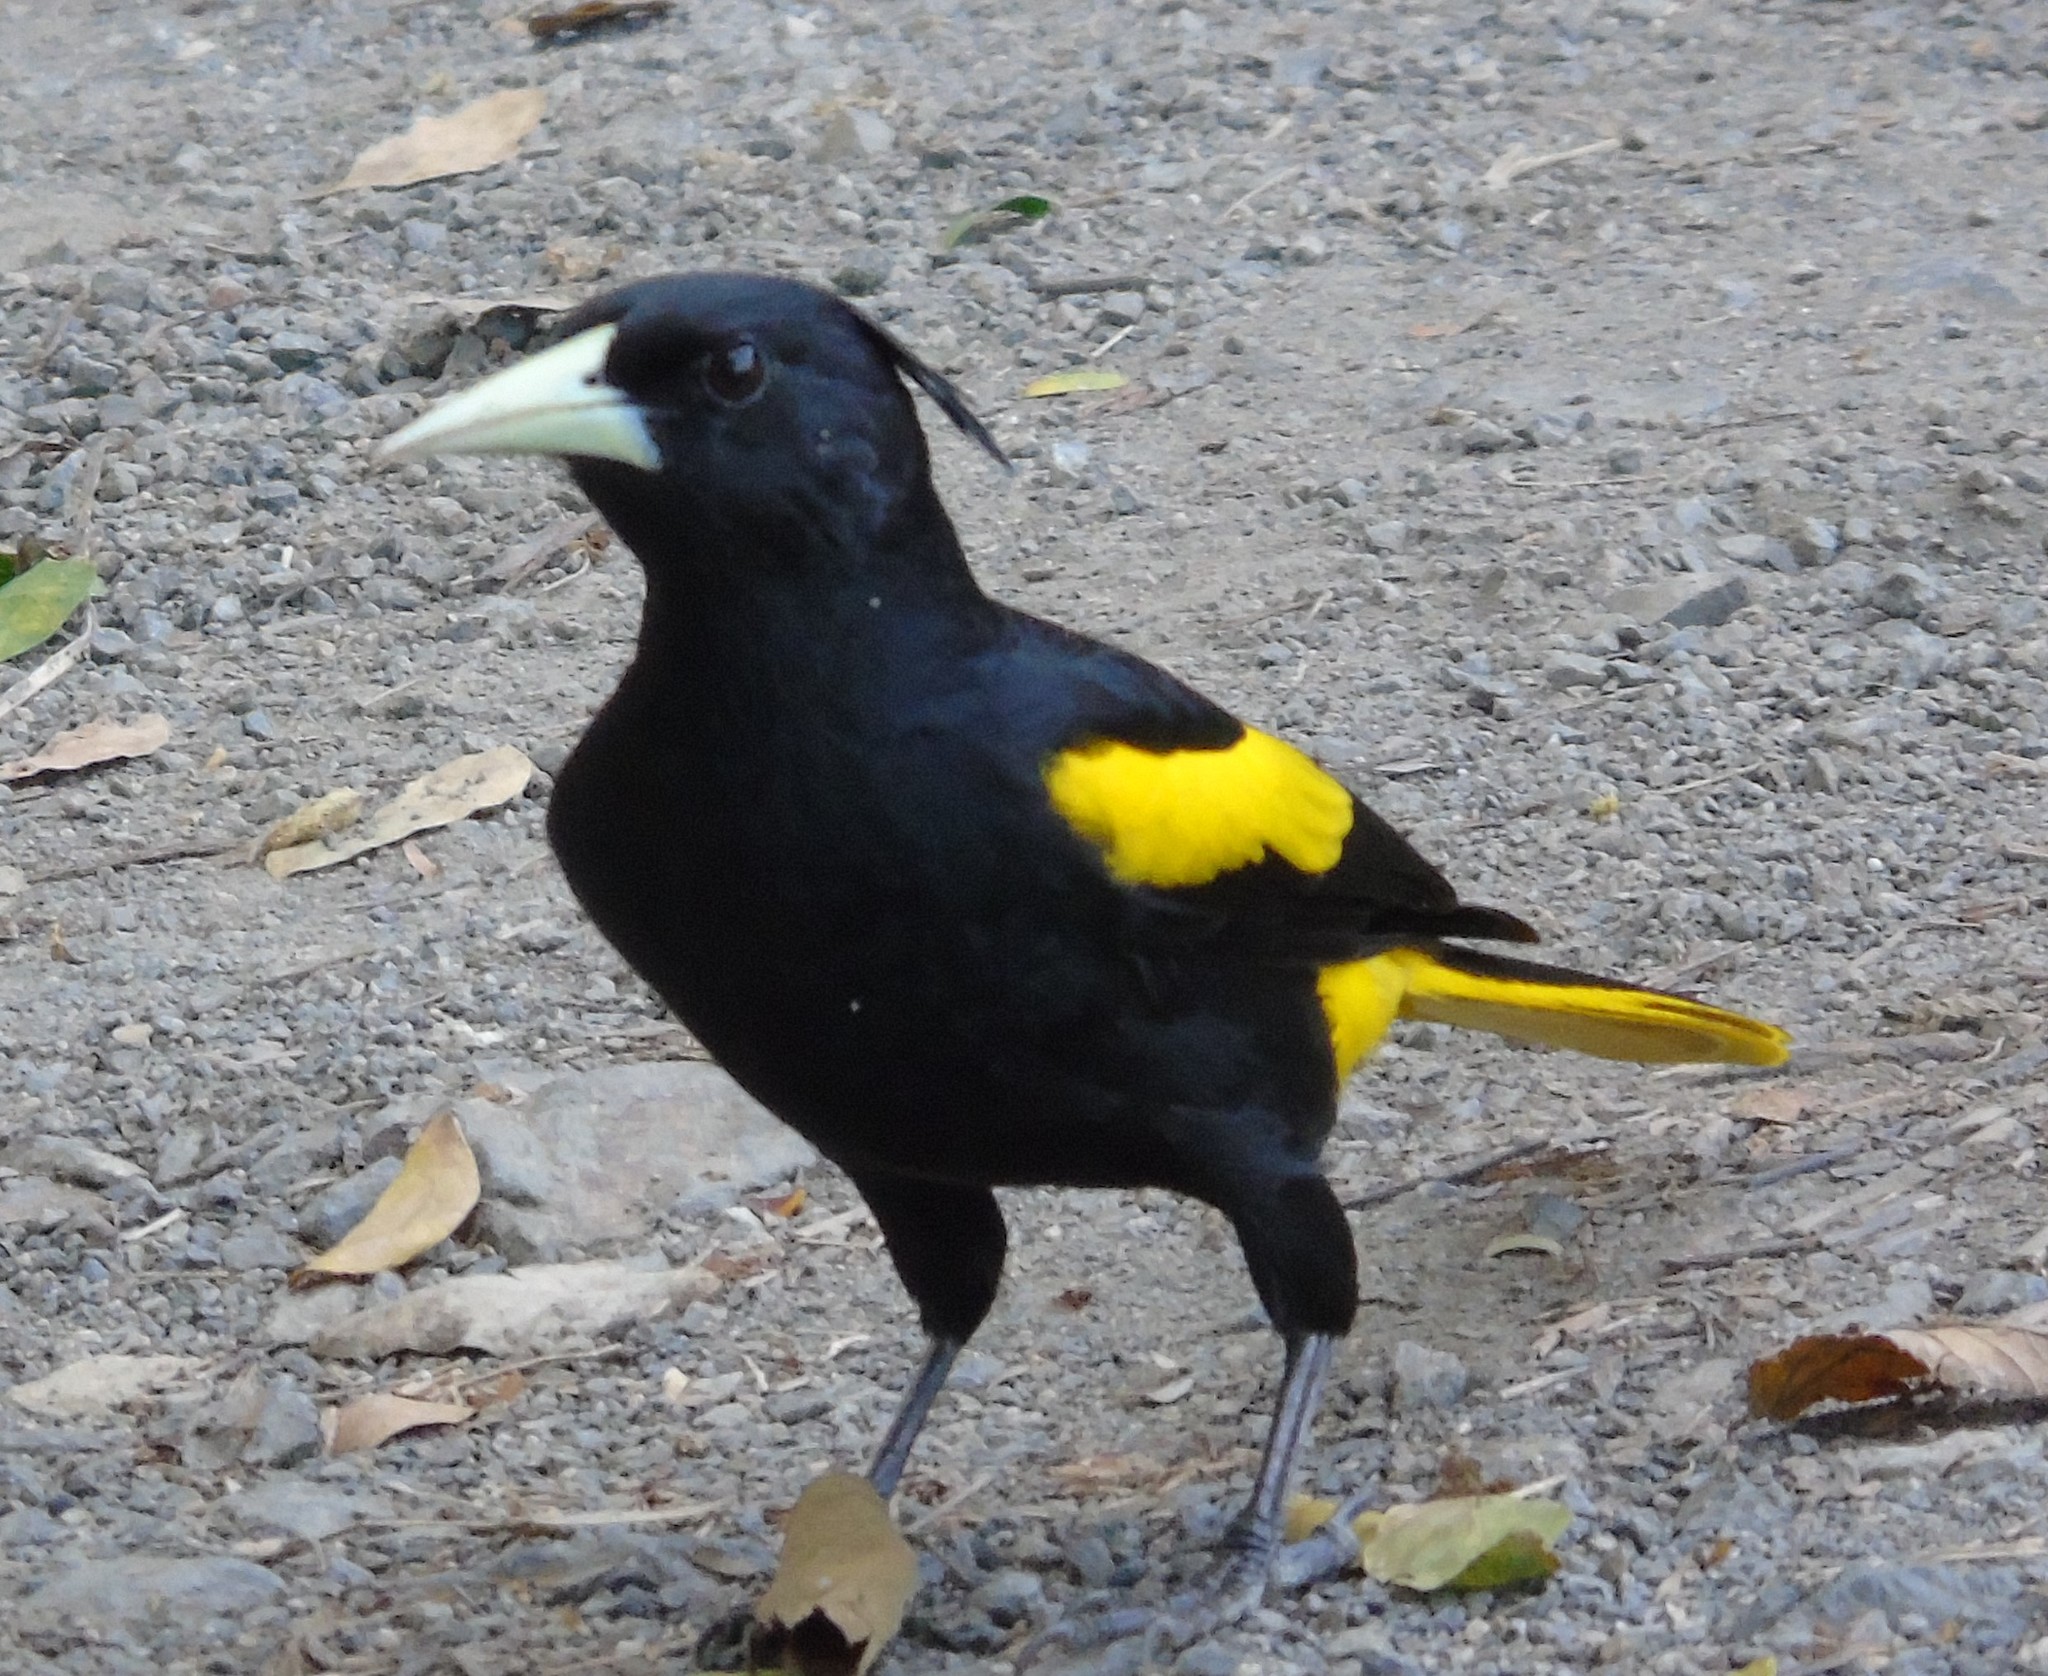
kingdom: Animalia
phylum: Chordata
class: Aves
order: Passeriformes
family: Icteridae
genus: Cacicus
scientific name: Cacicus melanicterus
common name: Yellow-winged cacique
